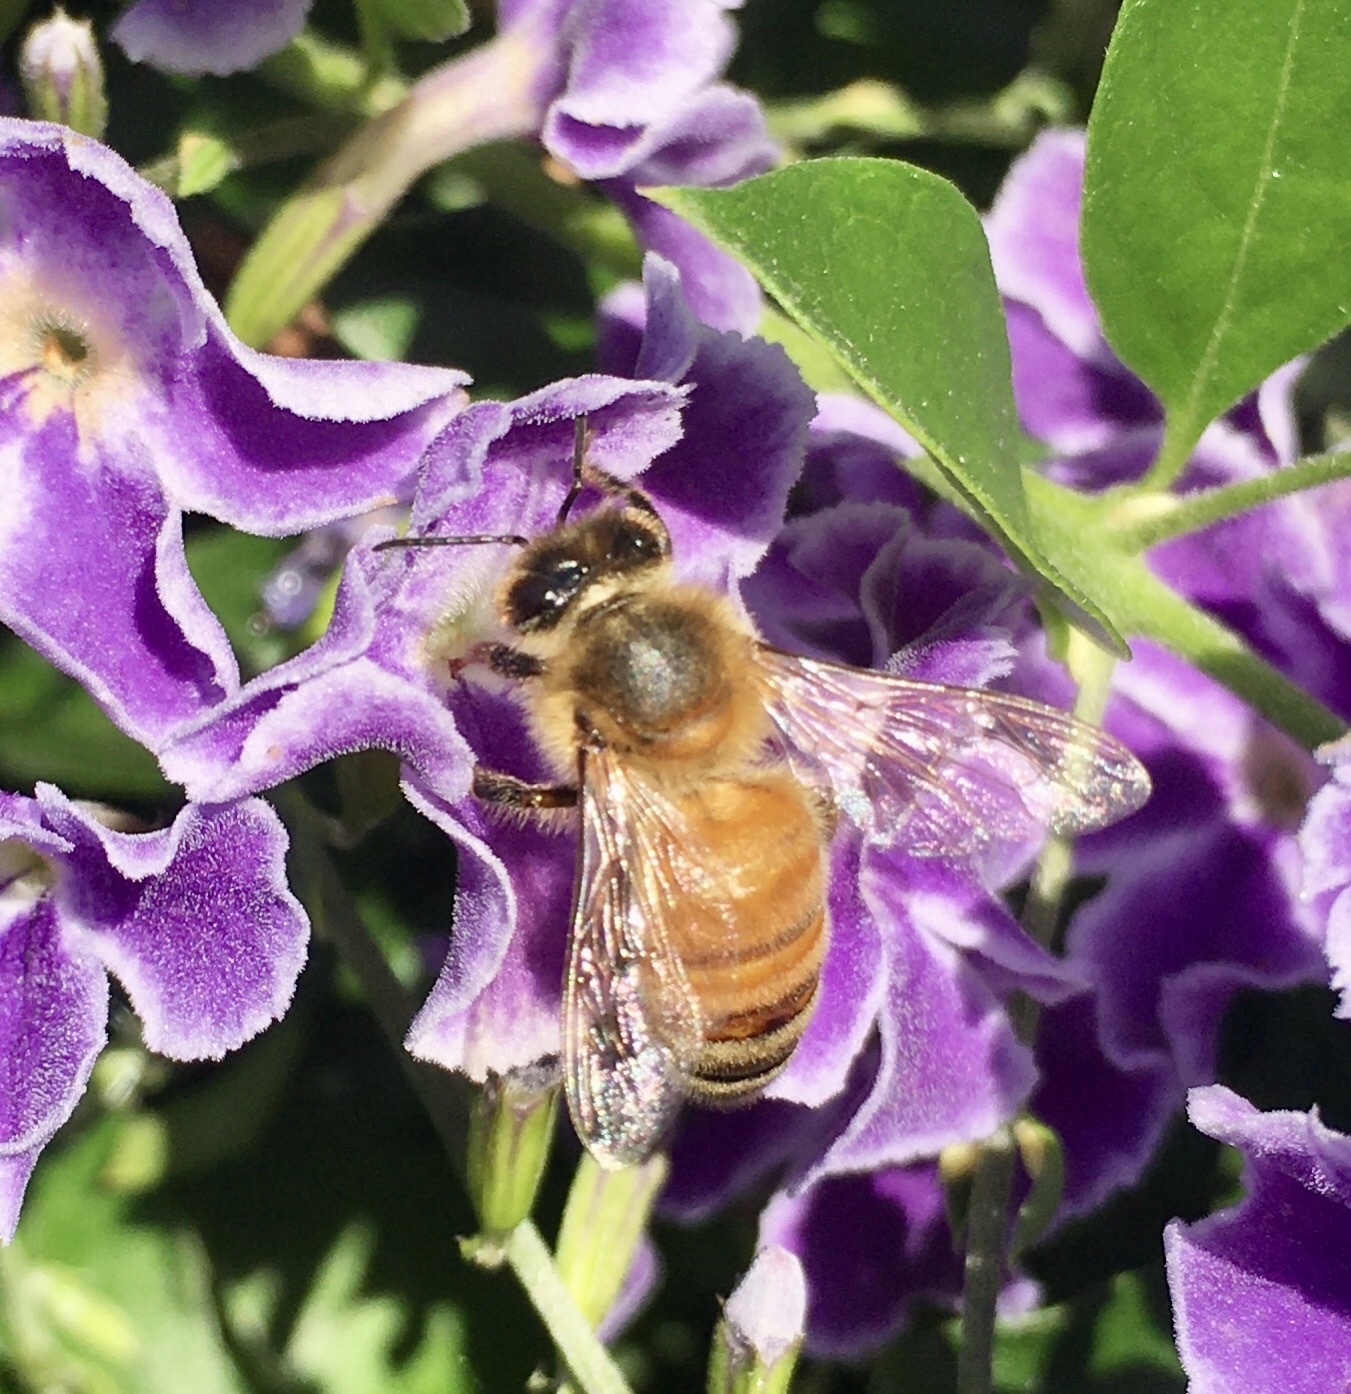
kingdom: Animalia
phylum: Arthropoda
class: Insecta
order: Hymenoptera
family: Apidae
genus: Apis
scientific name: Apis mellifera
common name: Honey bee
